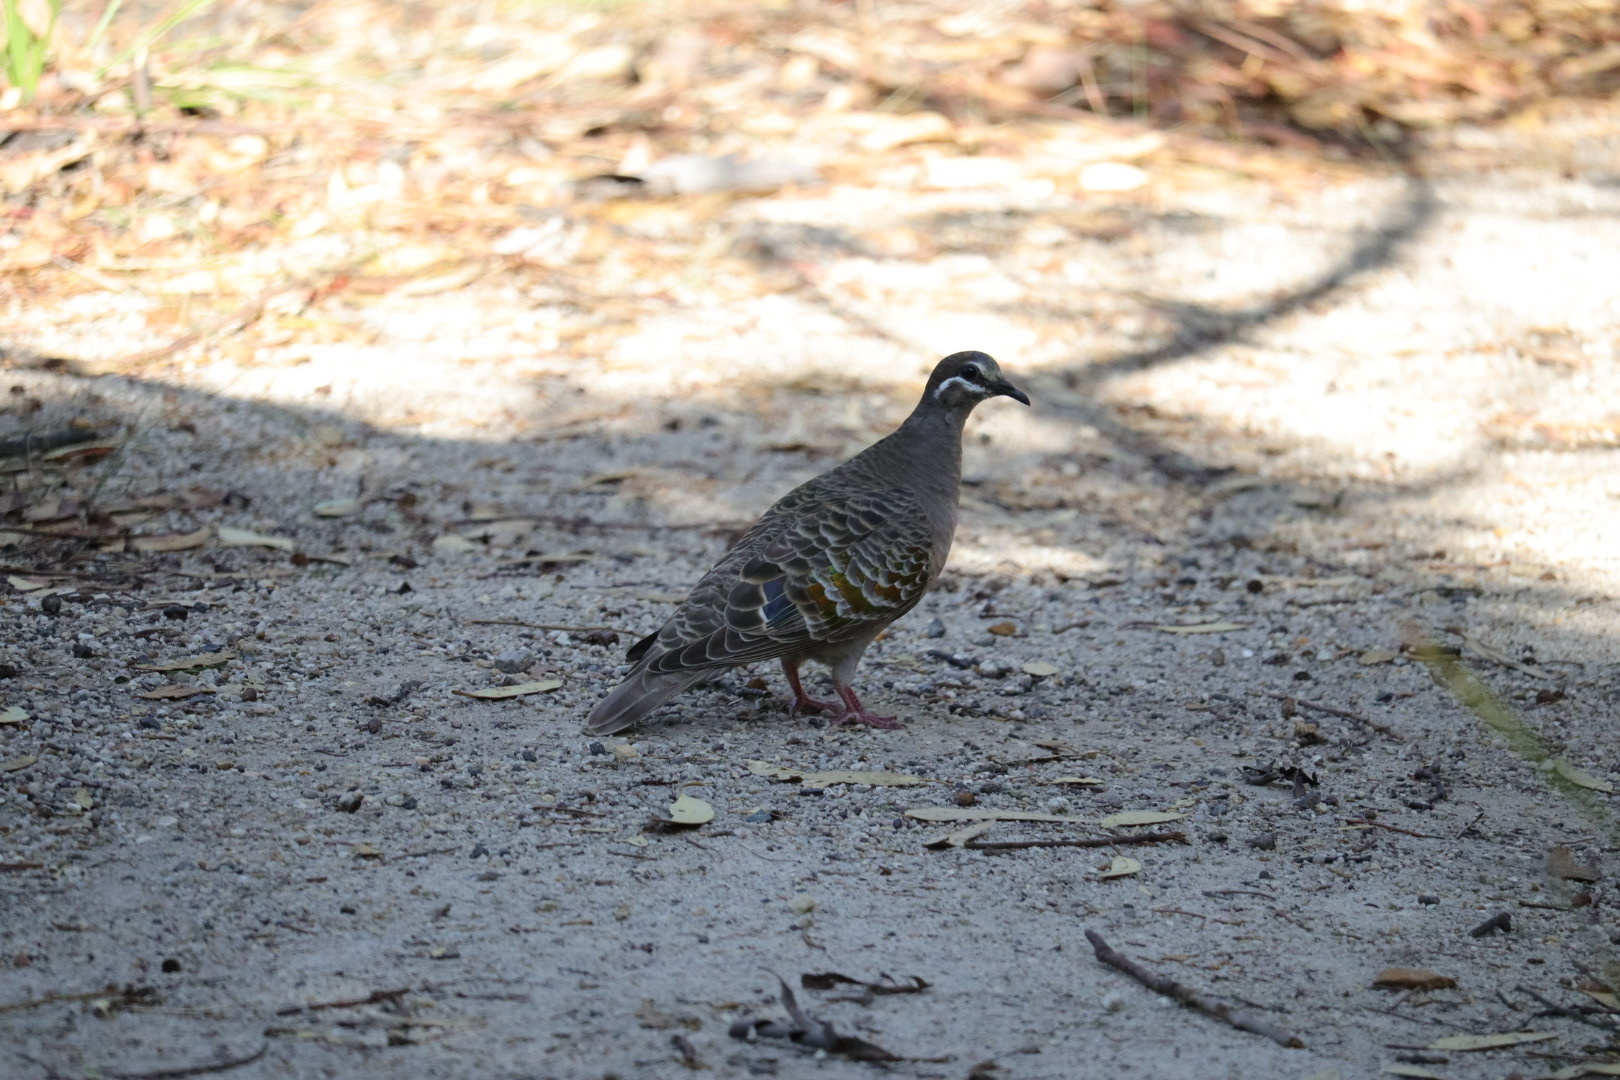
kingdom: Animalia
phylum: Chordata
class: Aves
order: Columbiformes
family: Columbidae
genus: Phaps
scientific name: Phaps chalcoptera
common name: Common bronzewing
